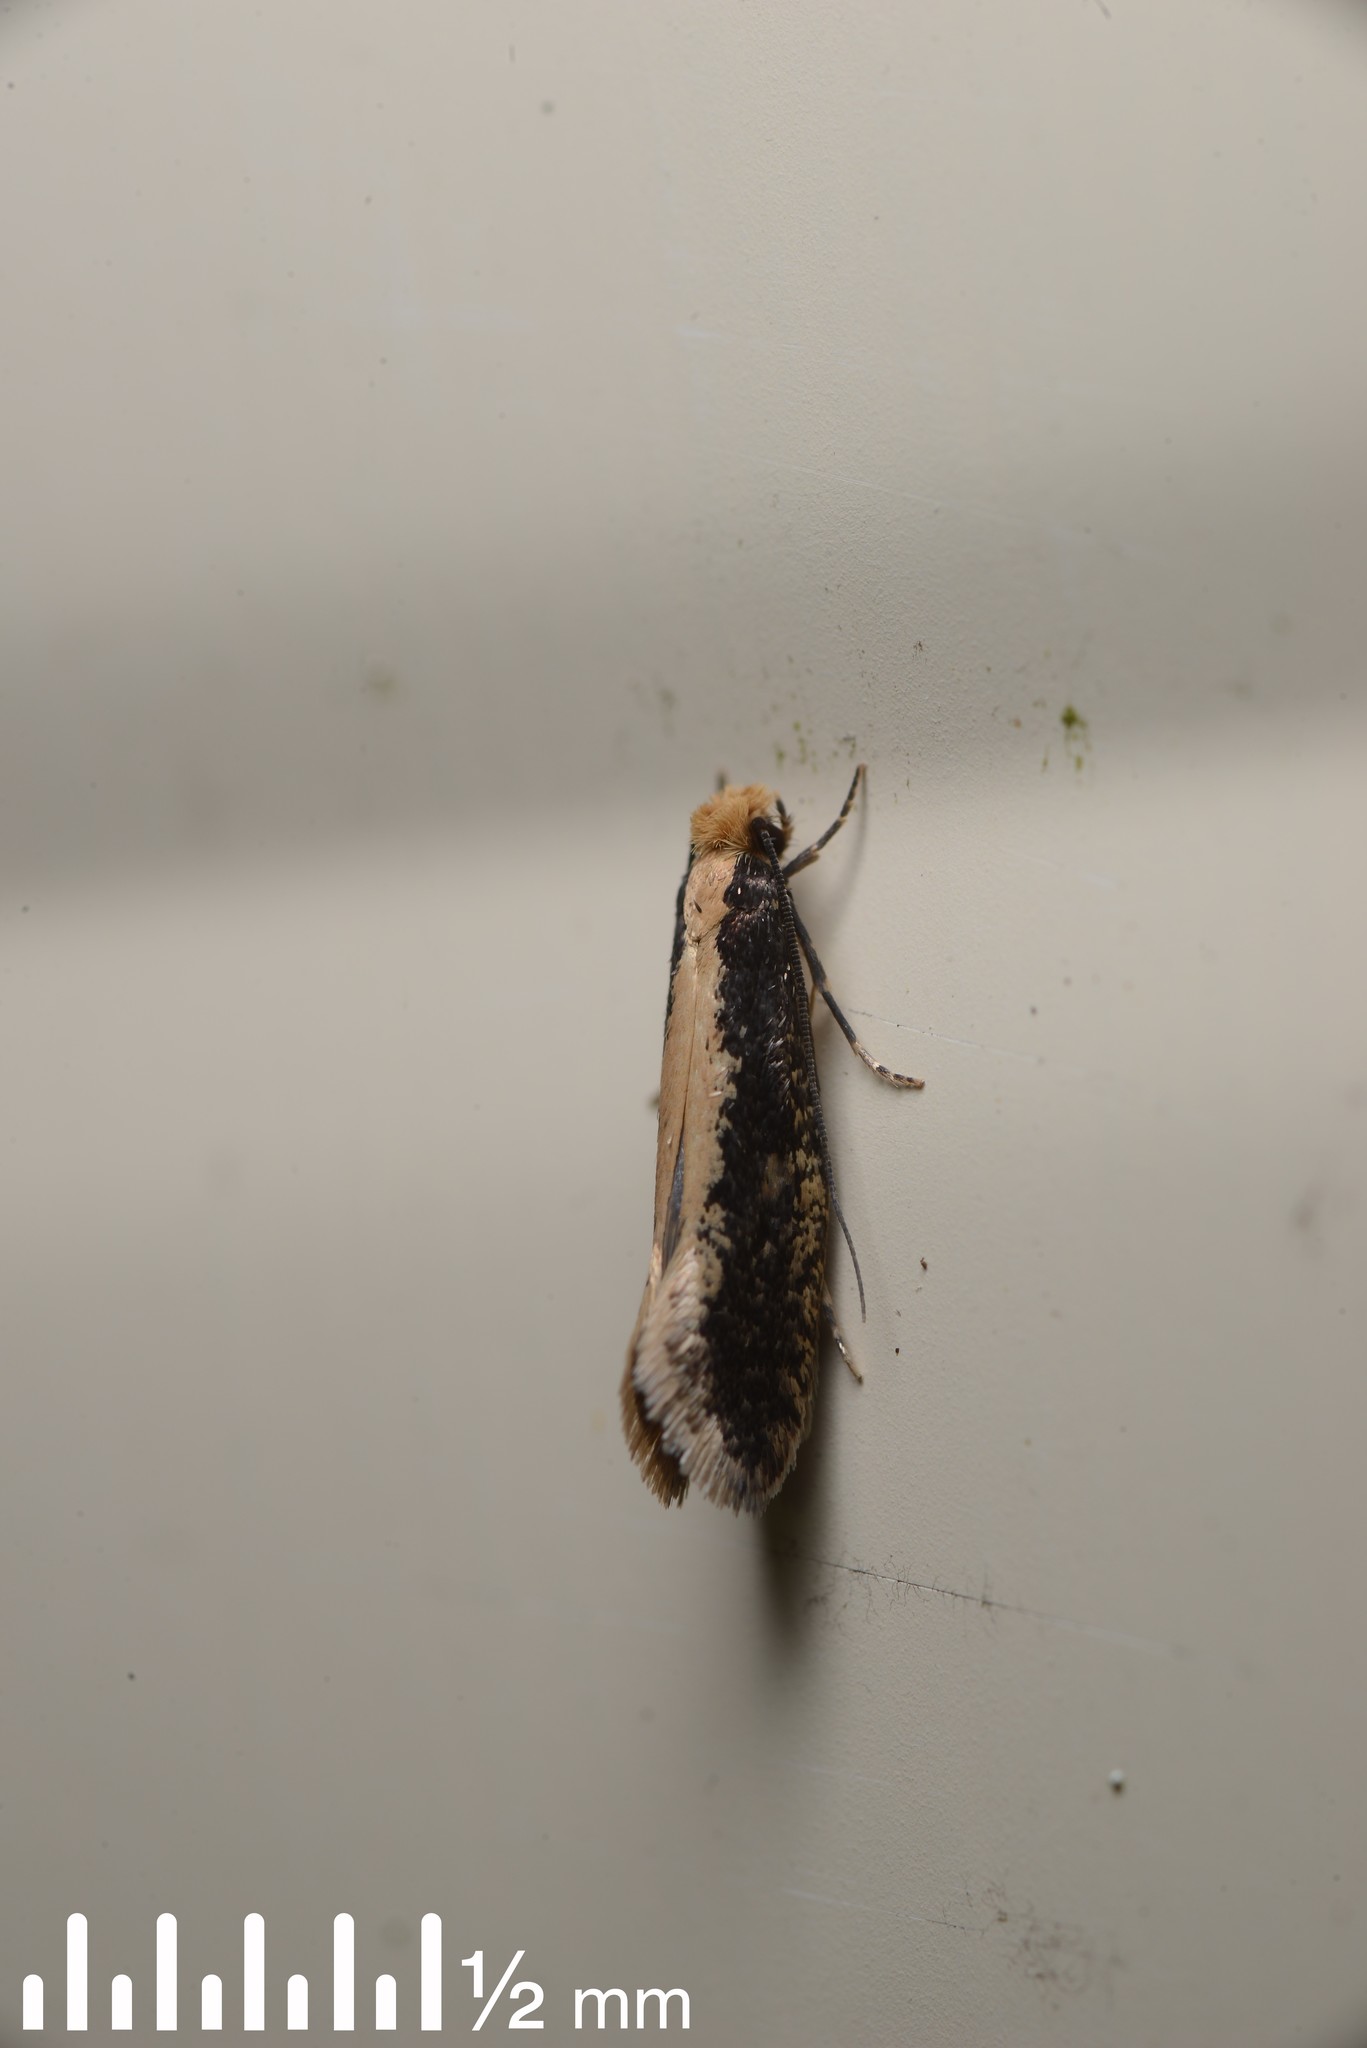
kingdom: Animalia
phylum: Arthropoda
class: Insecta
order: Lepidoptera
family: Tineidae
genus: Monopis
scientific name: Monopis crocicapitella
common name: Moth
